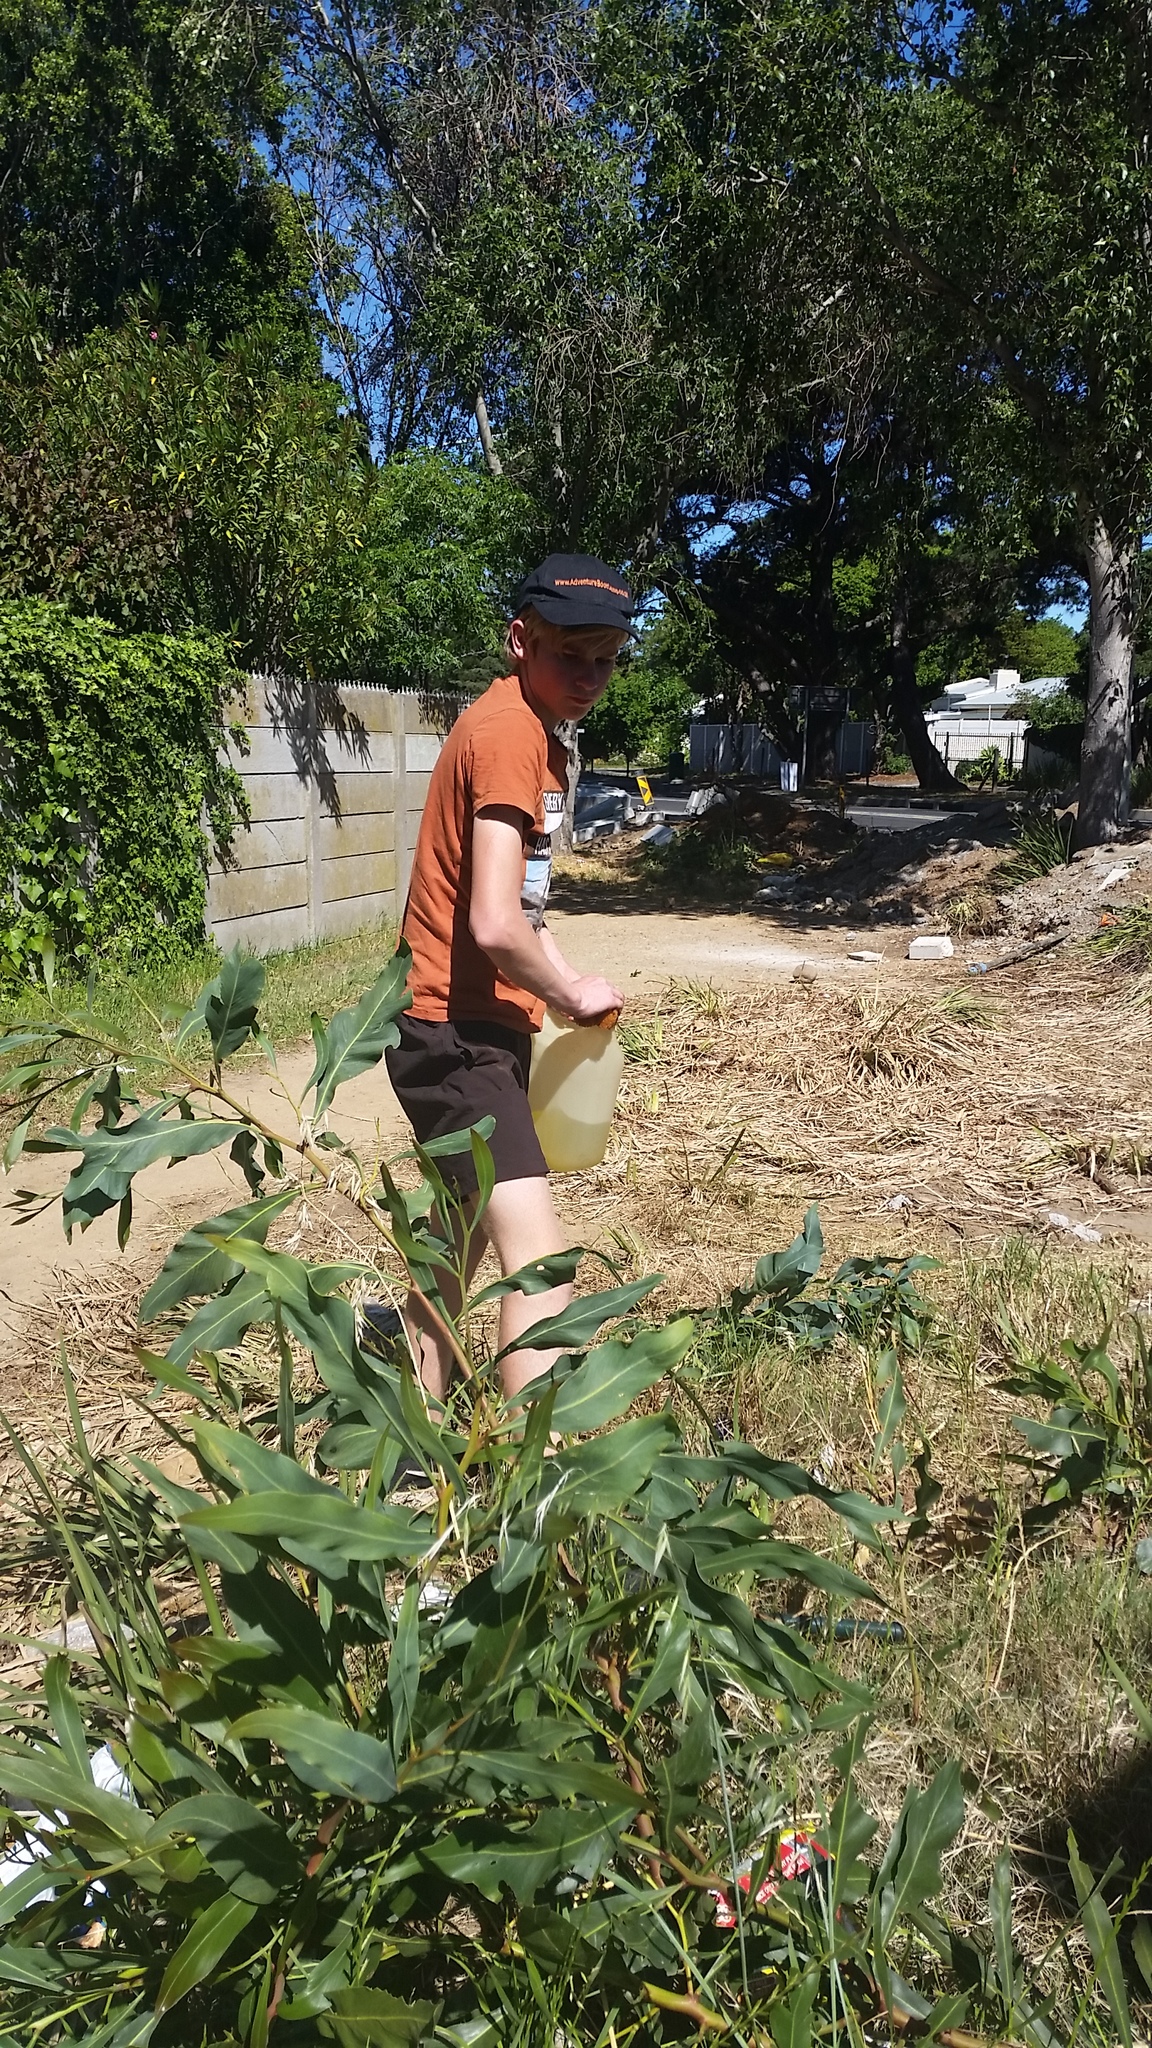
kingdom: Plantae
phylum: Tracheophyta
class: Magnoliopsida
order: Fabales
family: Fabaceae
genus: Acacia
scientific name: Acacia saligna
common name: Orange wattle
